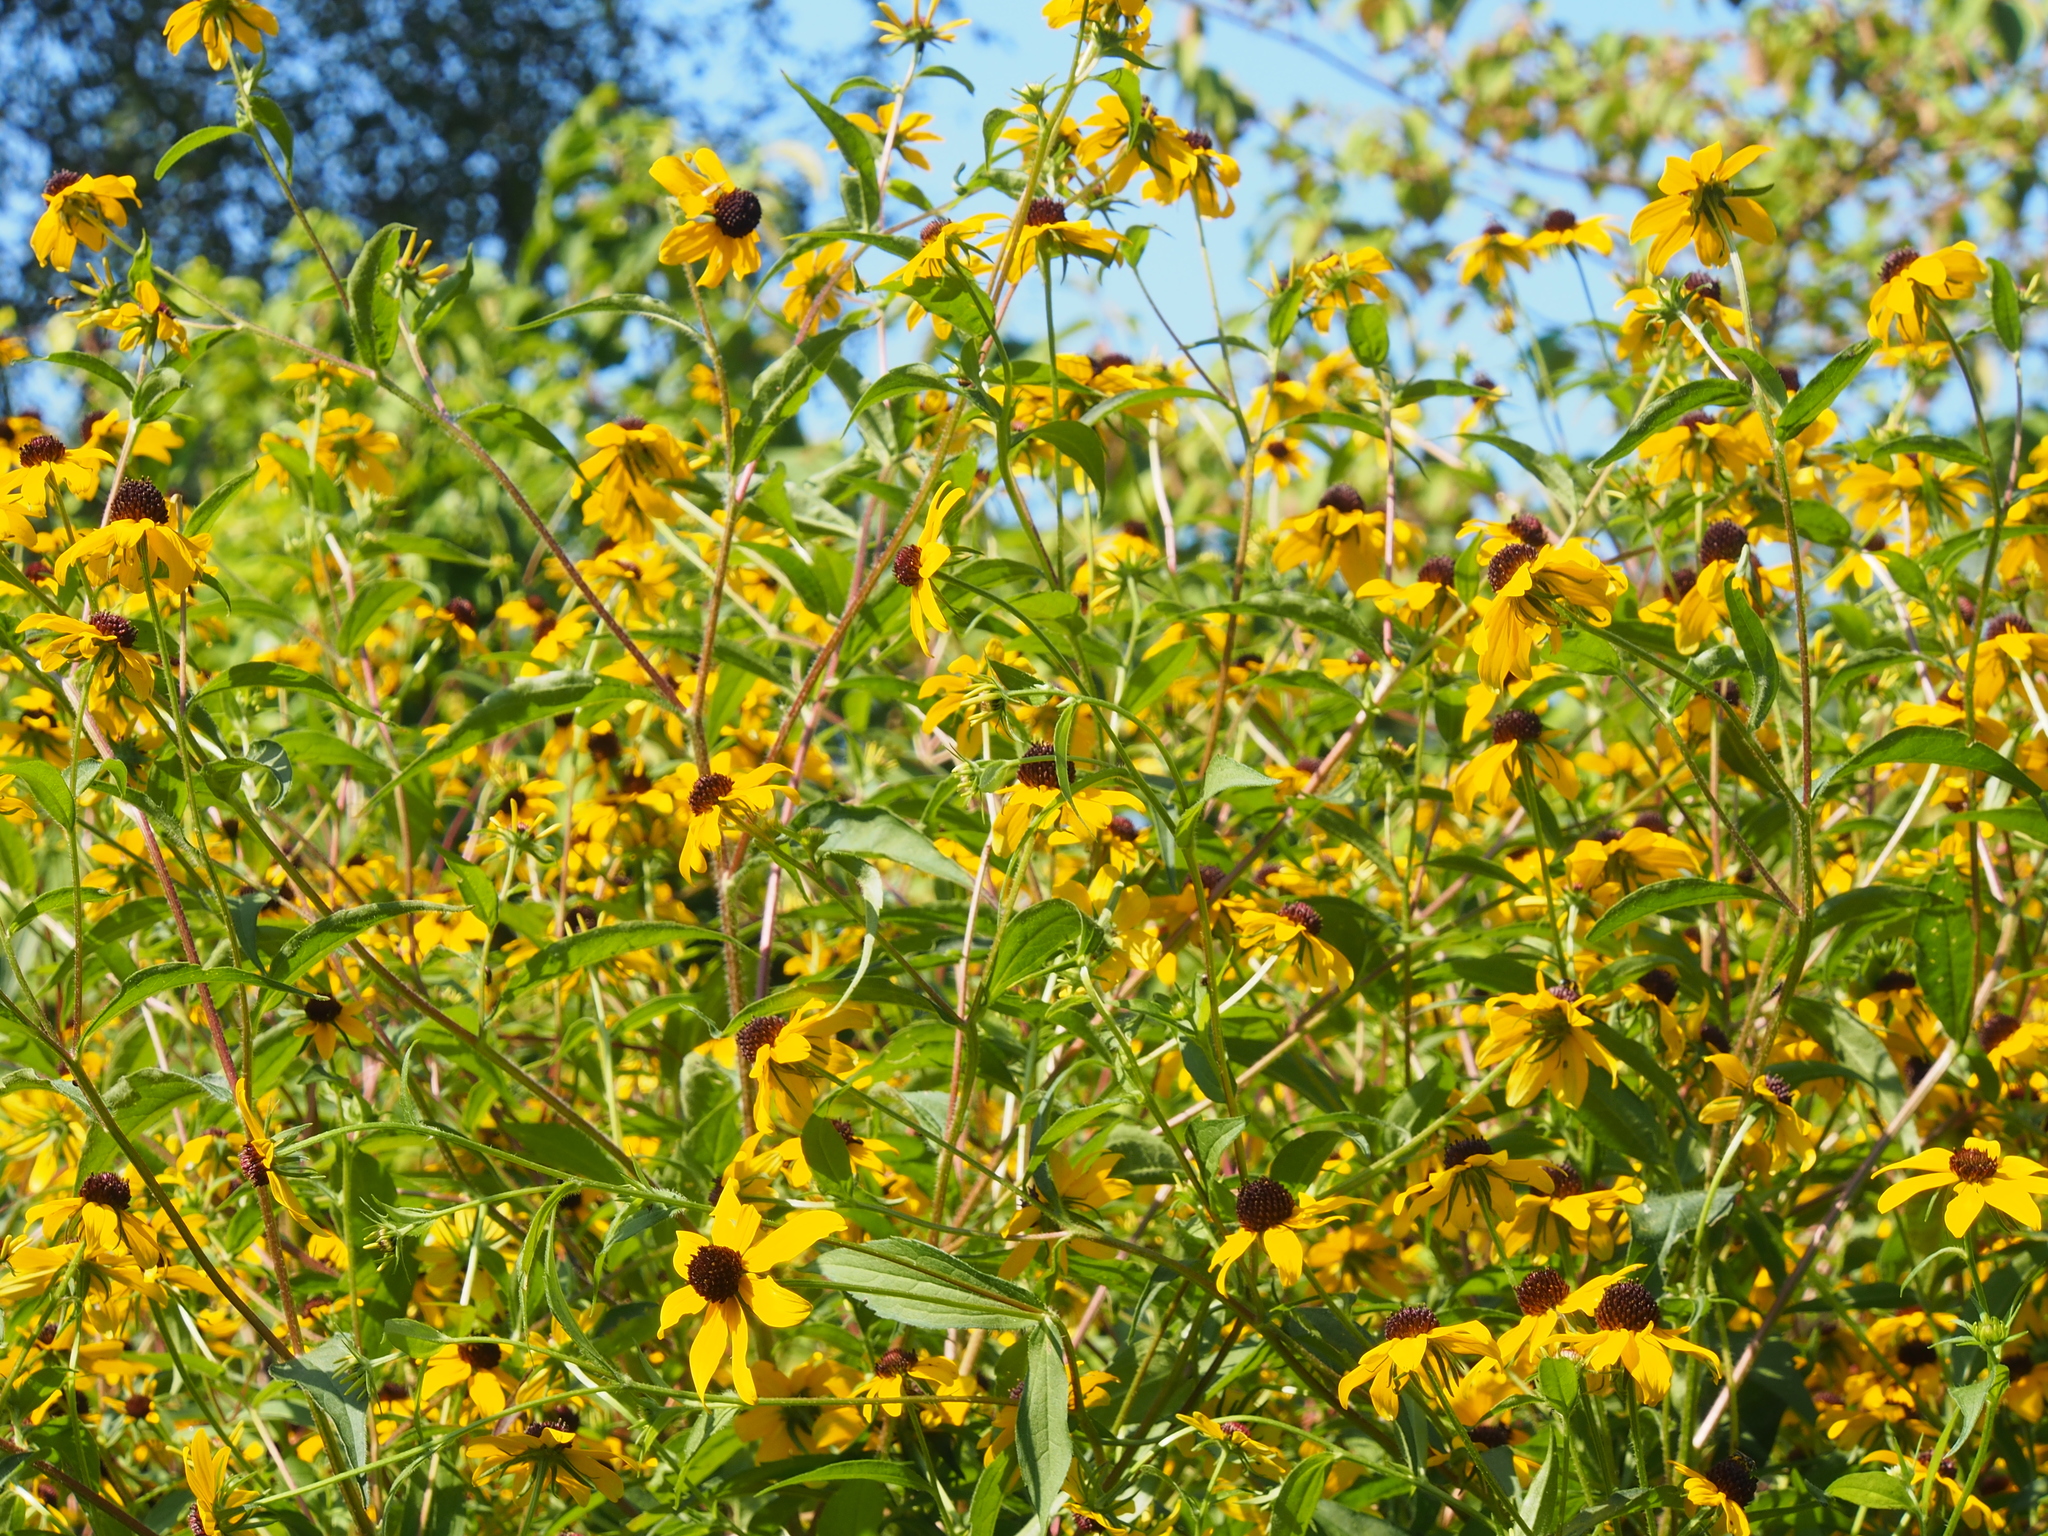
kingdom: Plantae
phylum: Tracheophyta
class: Magnoliopsida
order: Asterales
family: Asteraceae
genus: Rudbeckia
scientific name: Rudbeckia triloba
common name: Thin-leaved coneflower
